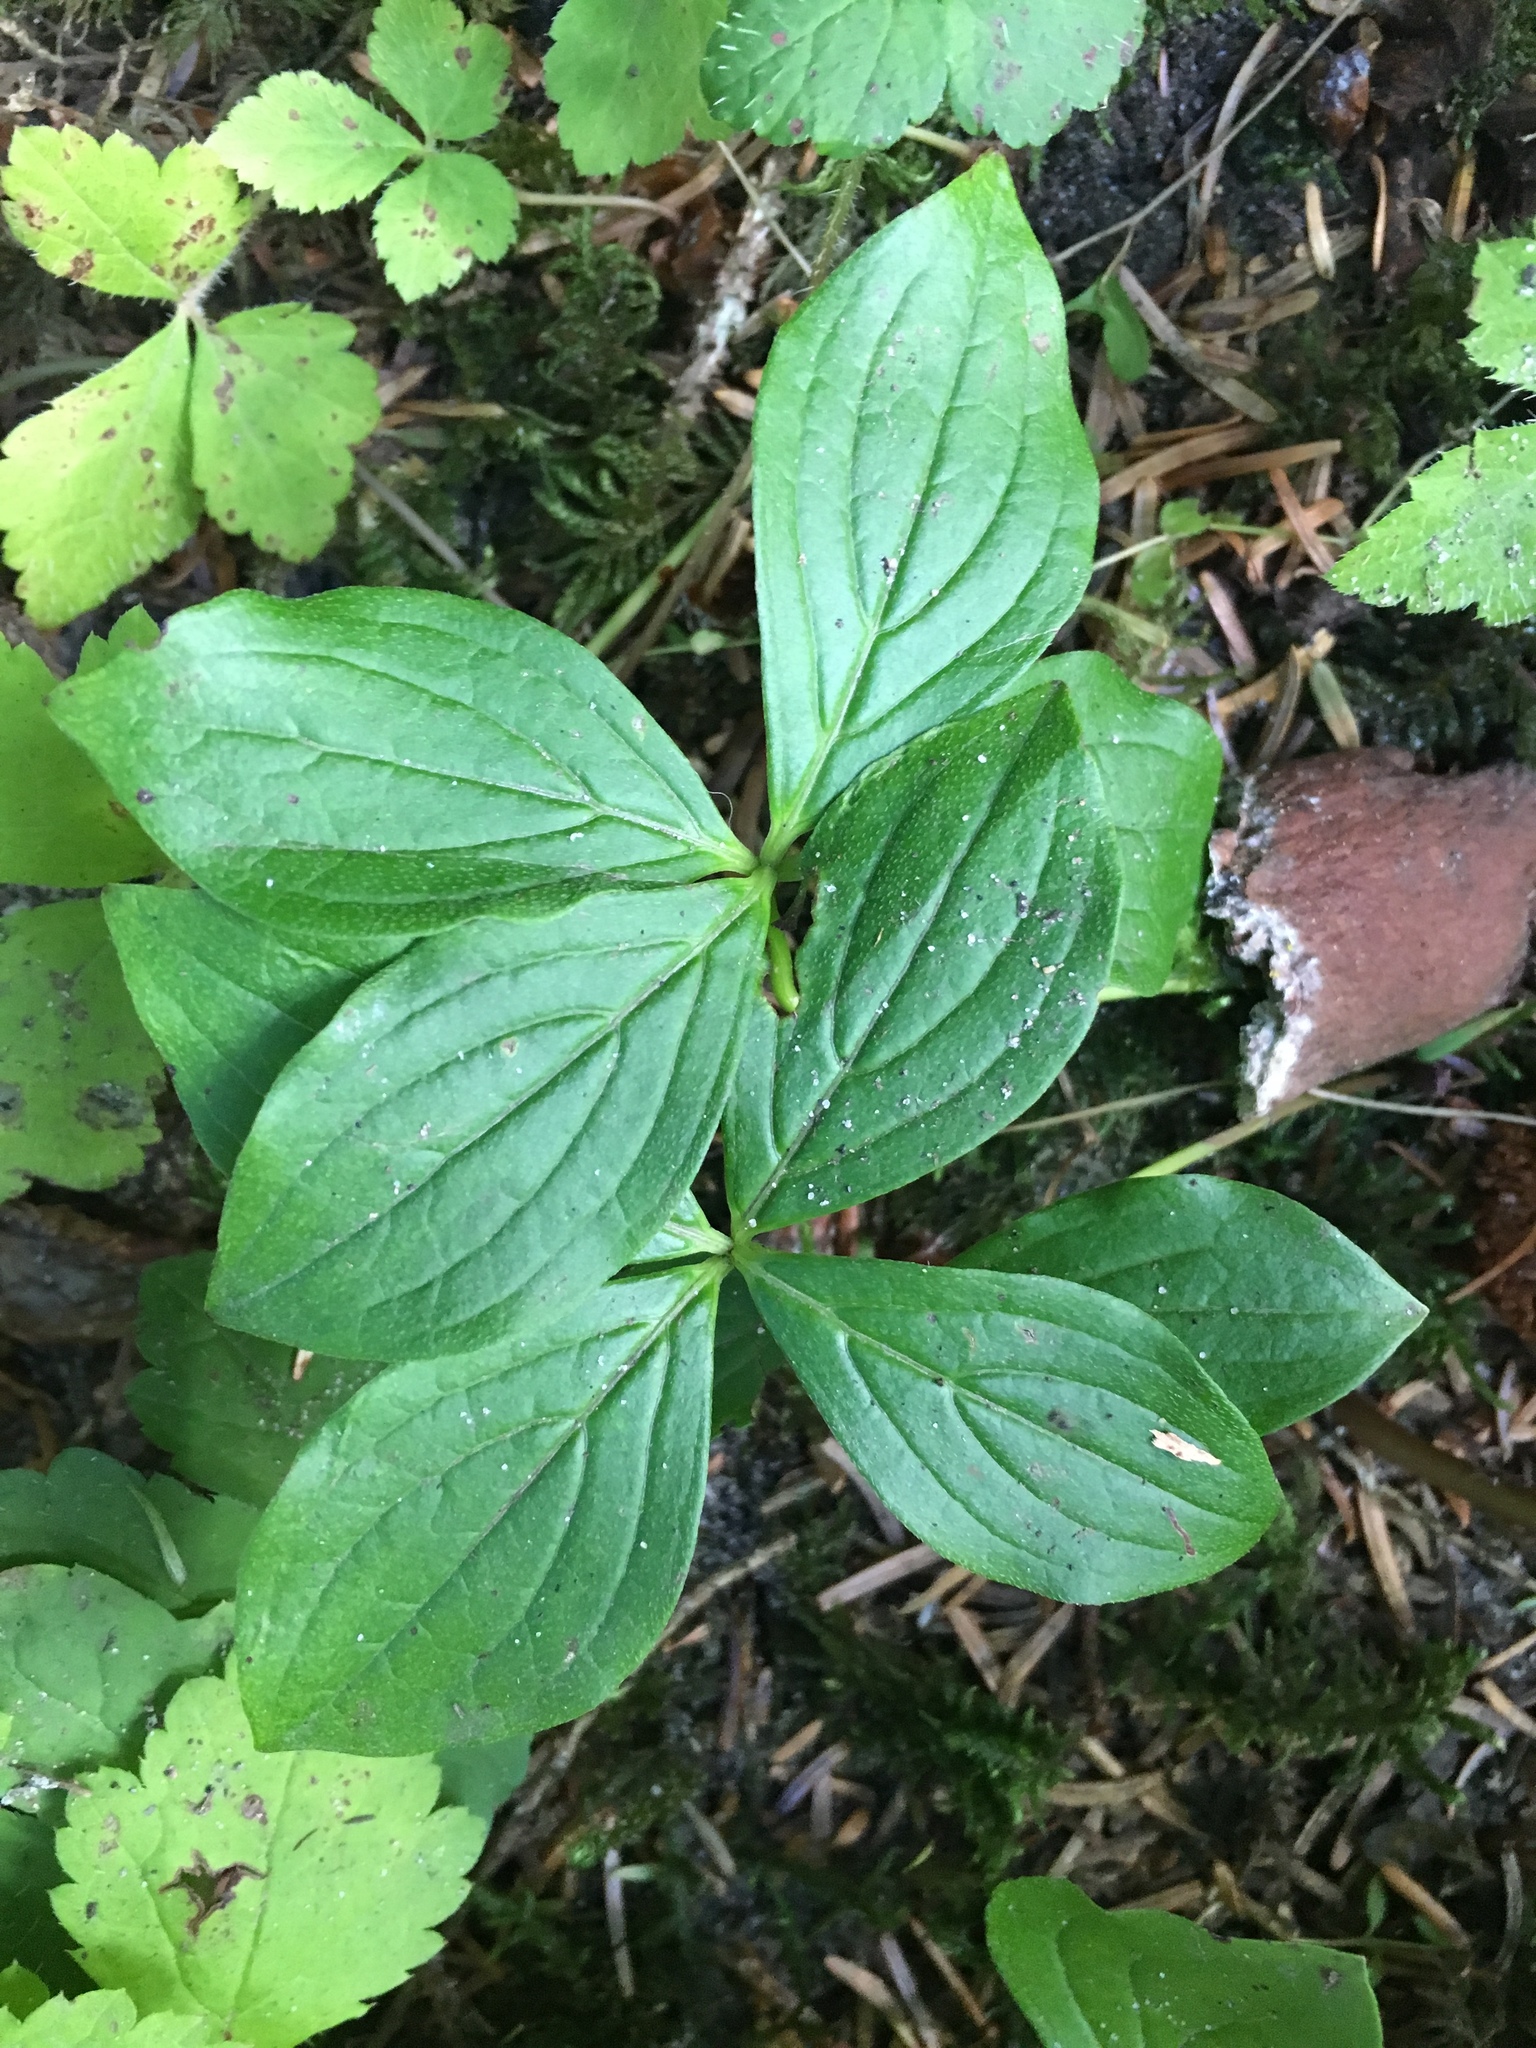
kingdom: Plantae
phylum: Tracheophyta
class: Magnoliopsida
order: Cornales
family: Cornaceae
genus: Cornus
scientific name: Cornus unalaschkensis
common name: Alaska bunchberry
